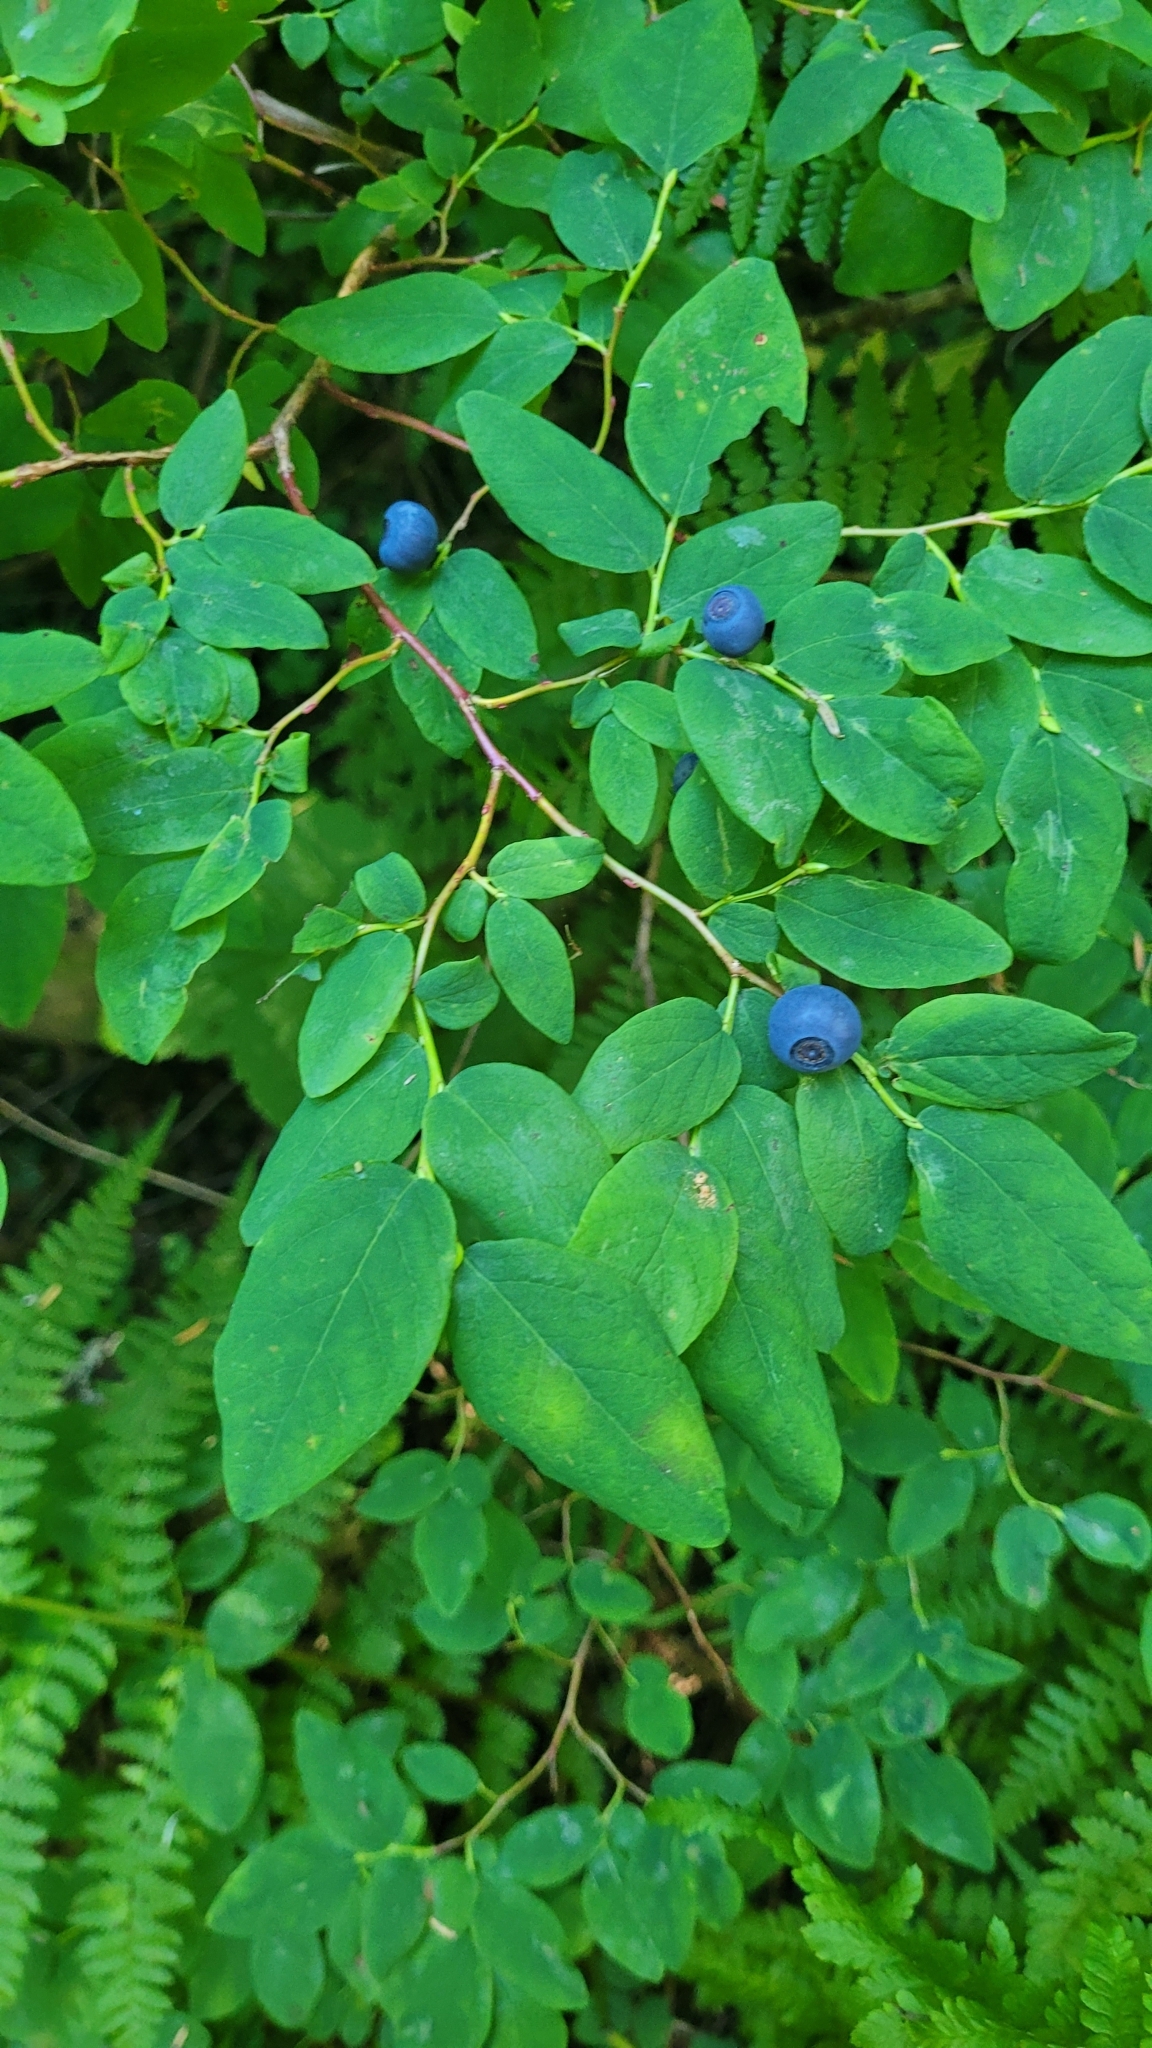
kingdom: Plantae
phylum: Tracheophyta
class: Magnoliopsida
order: Ericales
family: Ericaceae
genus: Vaccinium
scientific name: Vaccinium ovalifolium
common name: Early blueberry
